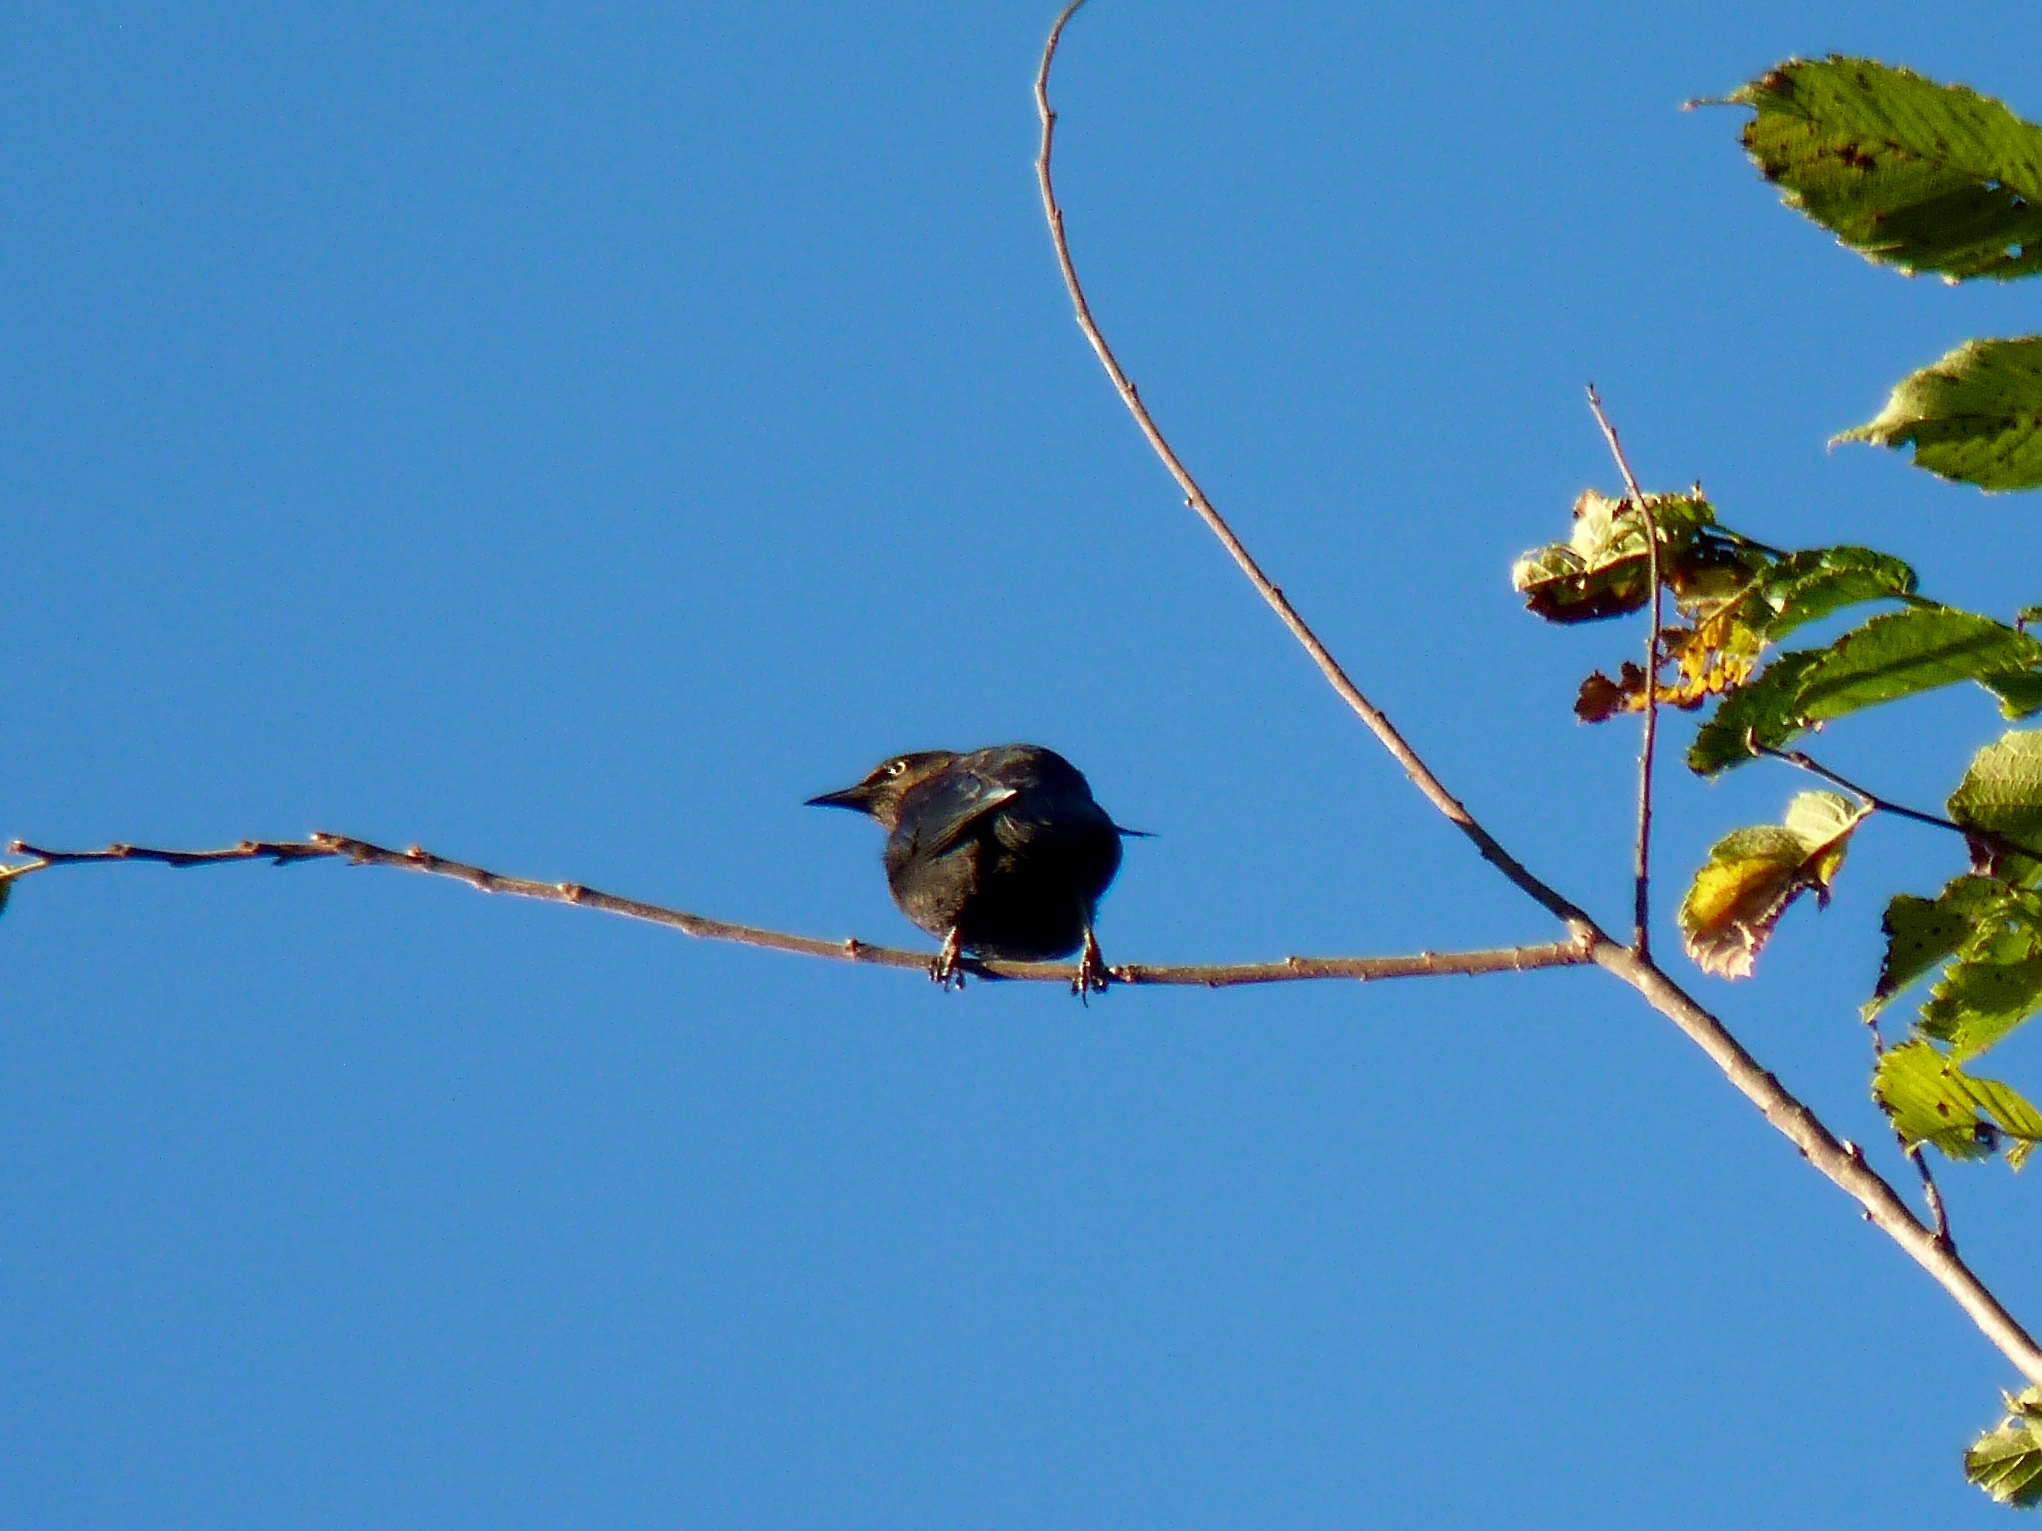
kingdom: Animalia
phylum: Chordata
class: Aves
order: Passeriformes
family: Icteridae
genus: Euphagus
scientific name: Euphagus carolinus
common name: Rusty blackbird
